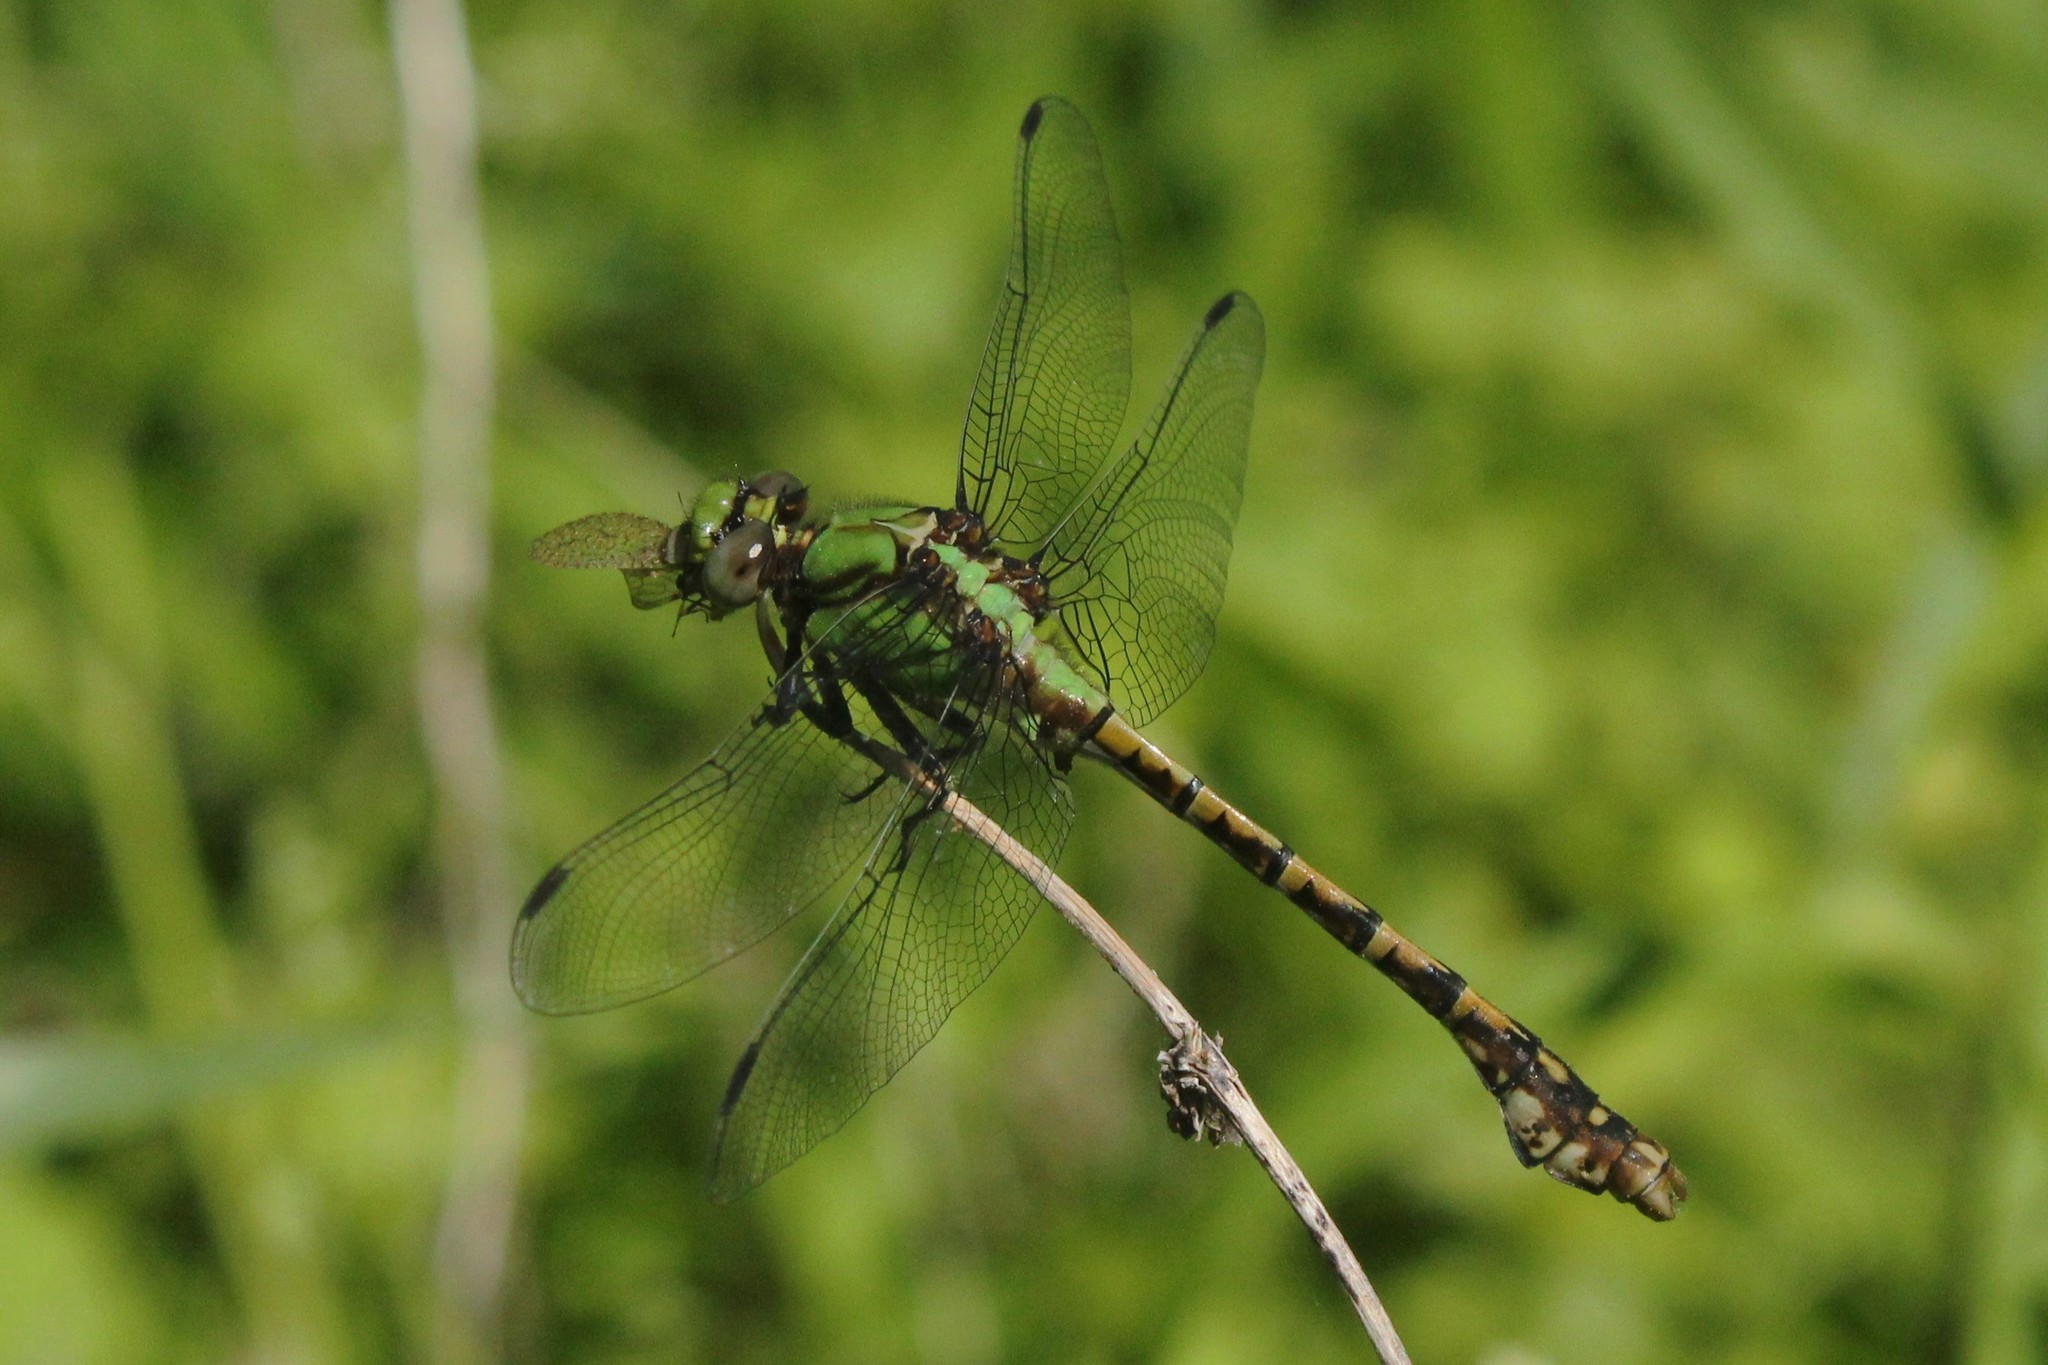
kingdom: Animalia
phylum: Arthropoda
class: Insecta
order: Odonata
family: Gomphidae
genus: Ophiogomphus
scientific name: Ophiogomphus rupinsulensis
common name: Rusty snaketail
